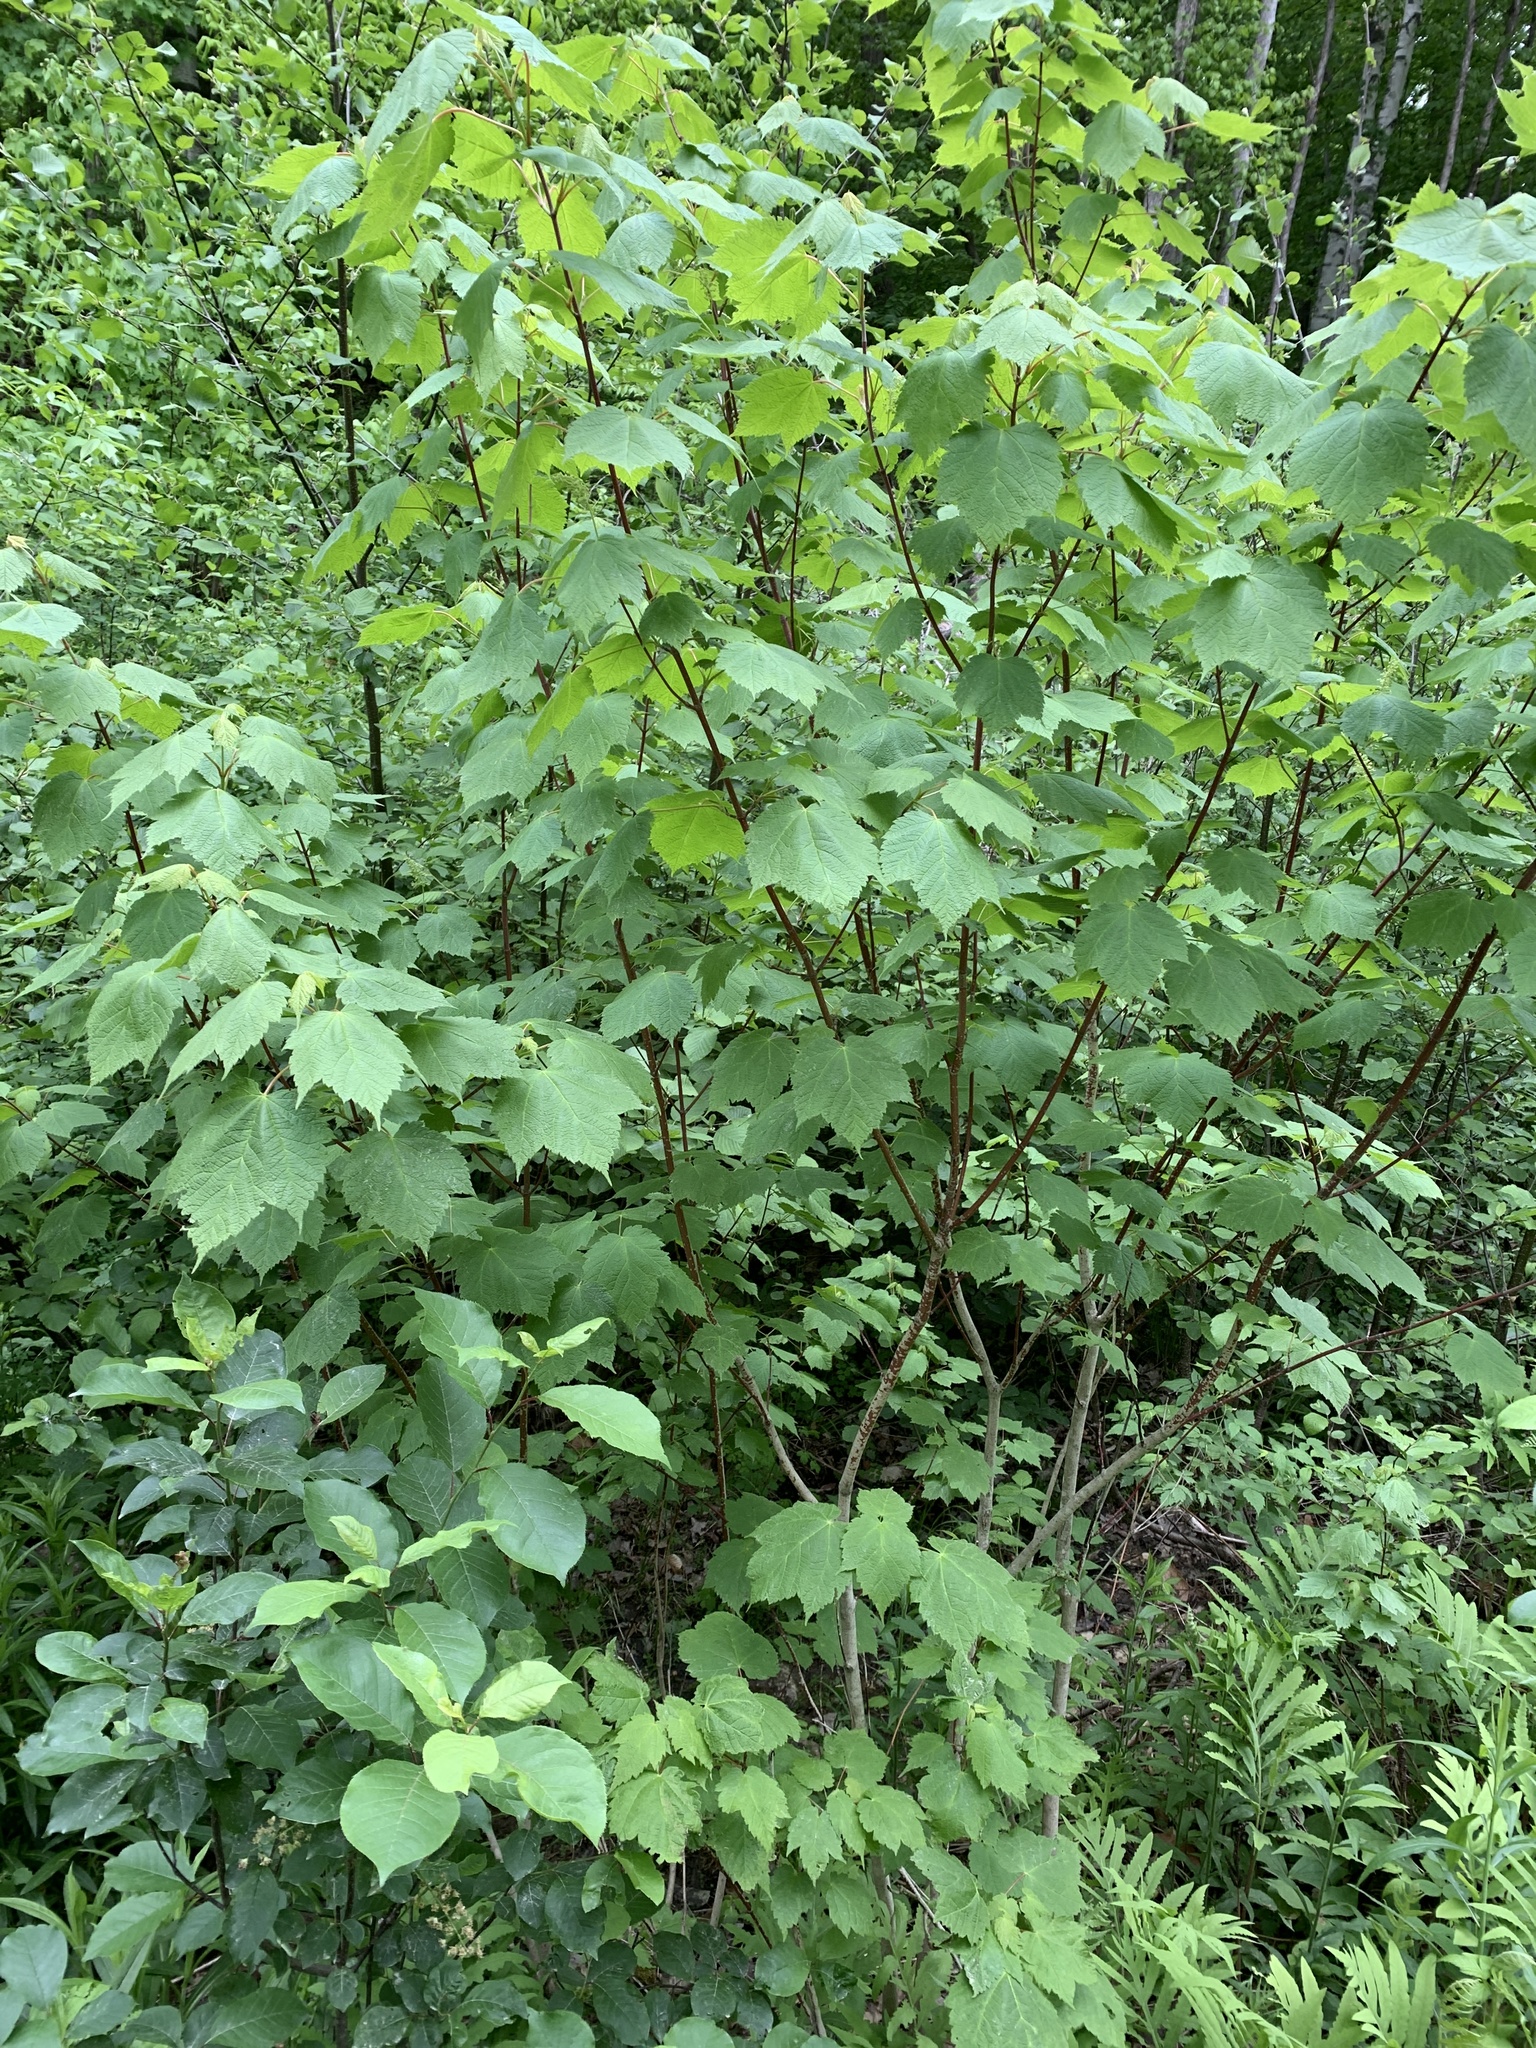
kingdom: Plantae
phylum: Tracheophyta
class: Magnoliopsida
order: Sapindales
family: Sapindaceae
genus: Acer
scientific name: Acer spicatum
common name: Mountain maple
